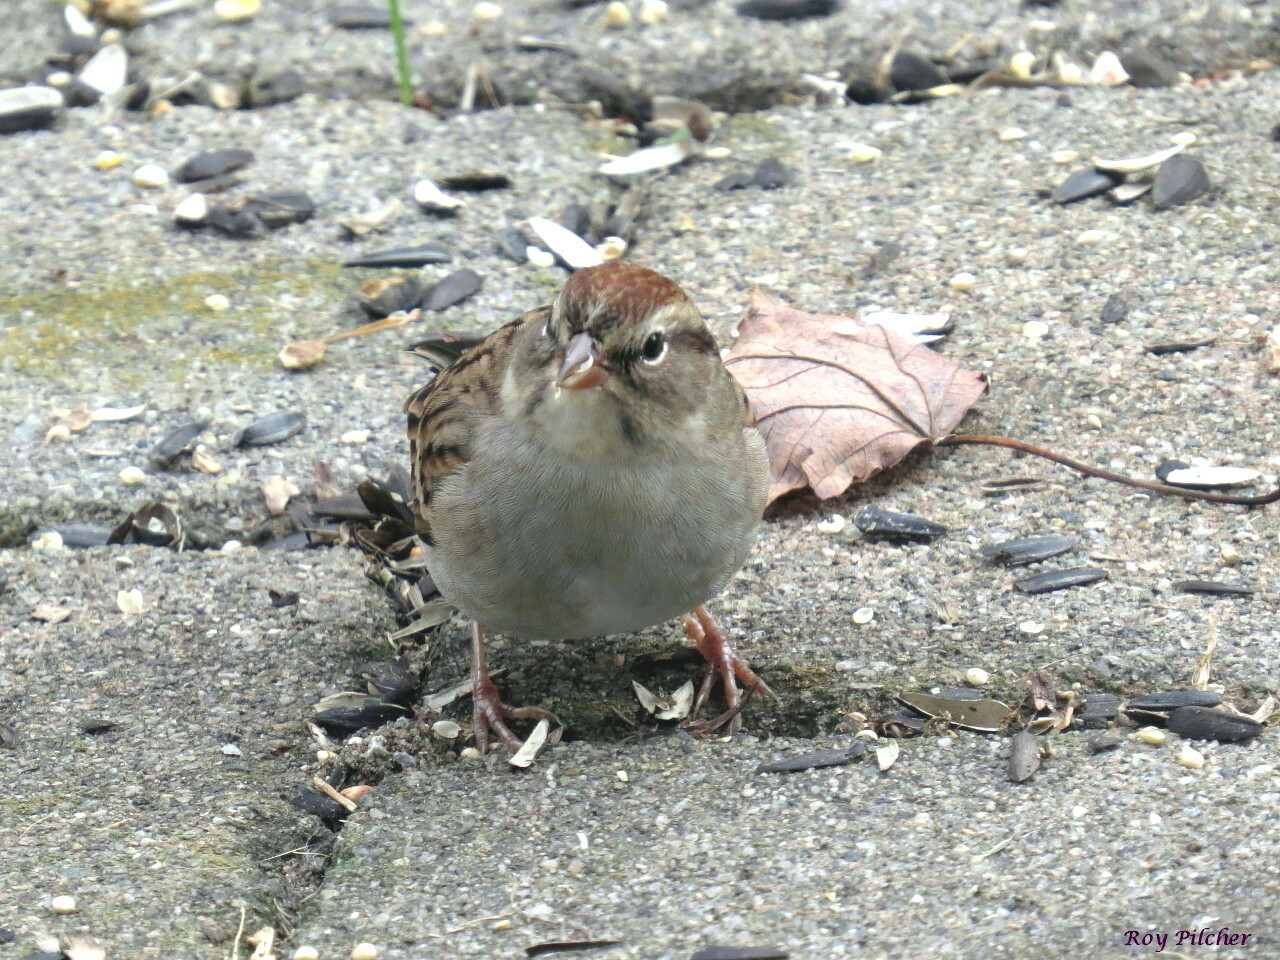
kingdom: Animalia
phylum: Chordata
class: Aves
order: Passeriformes
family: Passerellidae
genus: Spizella
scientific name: Spizella passerina
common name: Chipping sparrow
